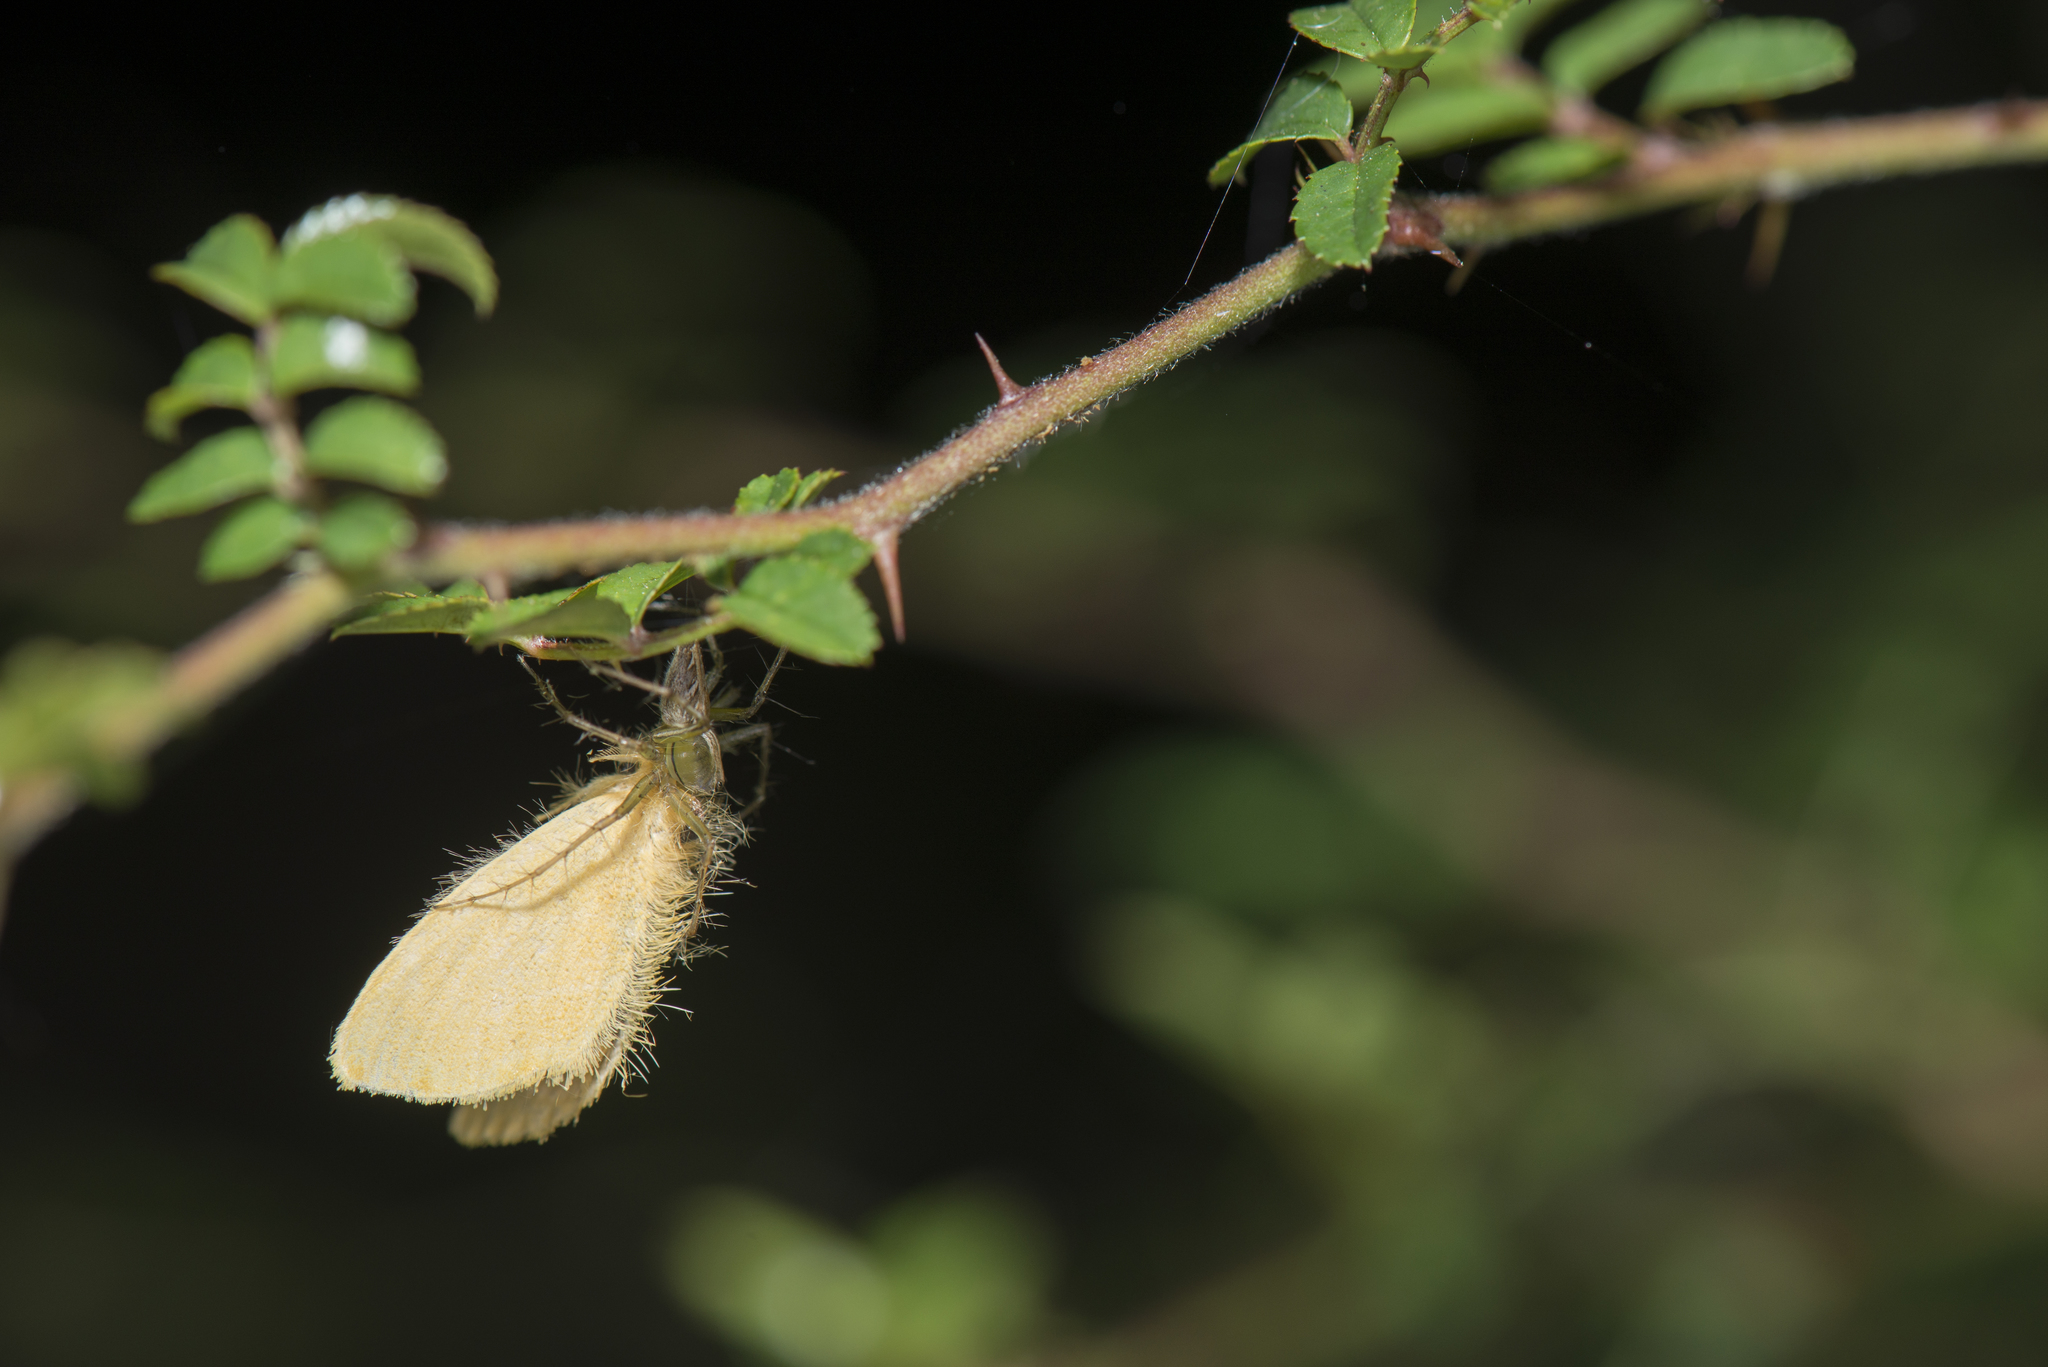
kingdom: Animalia
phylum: Arthropoda
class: Insecta
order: Lepidoptera
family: Erebidae
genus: Euproctis
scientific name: Euproctis taiwana
